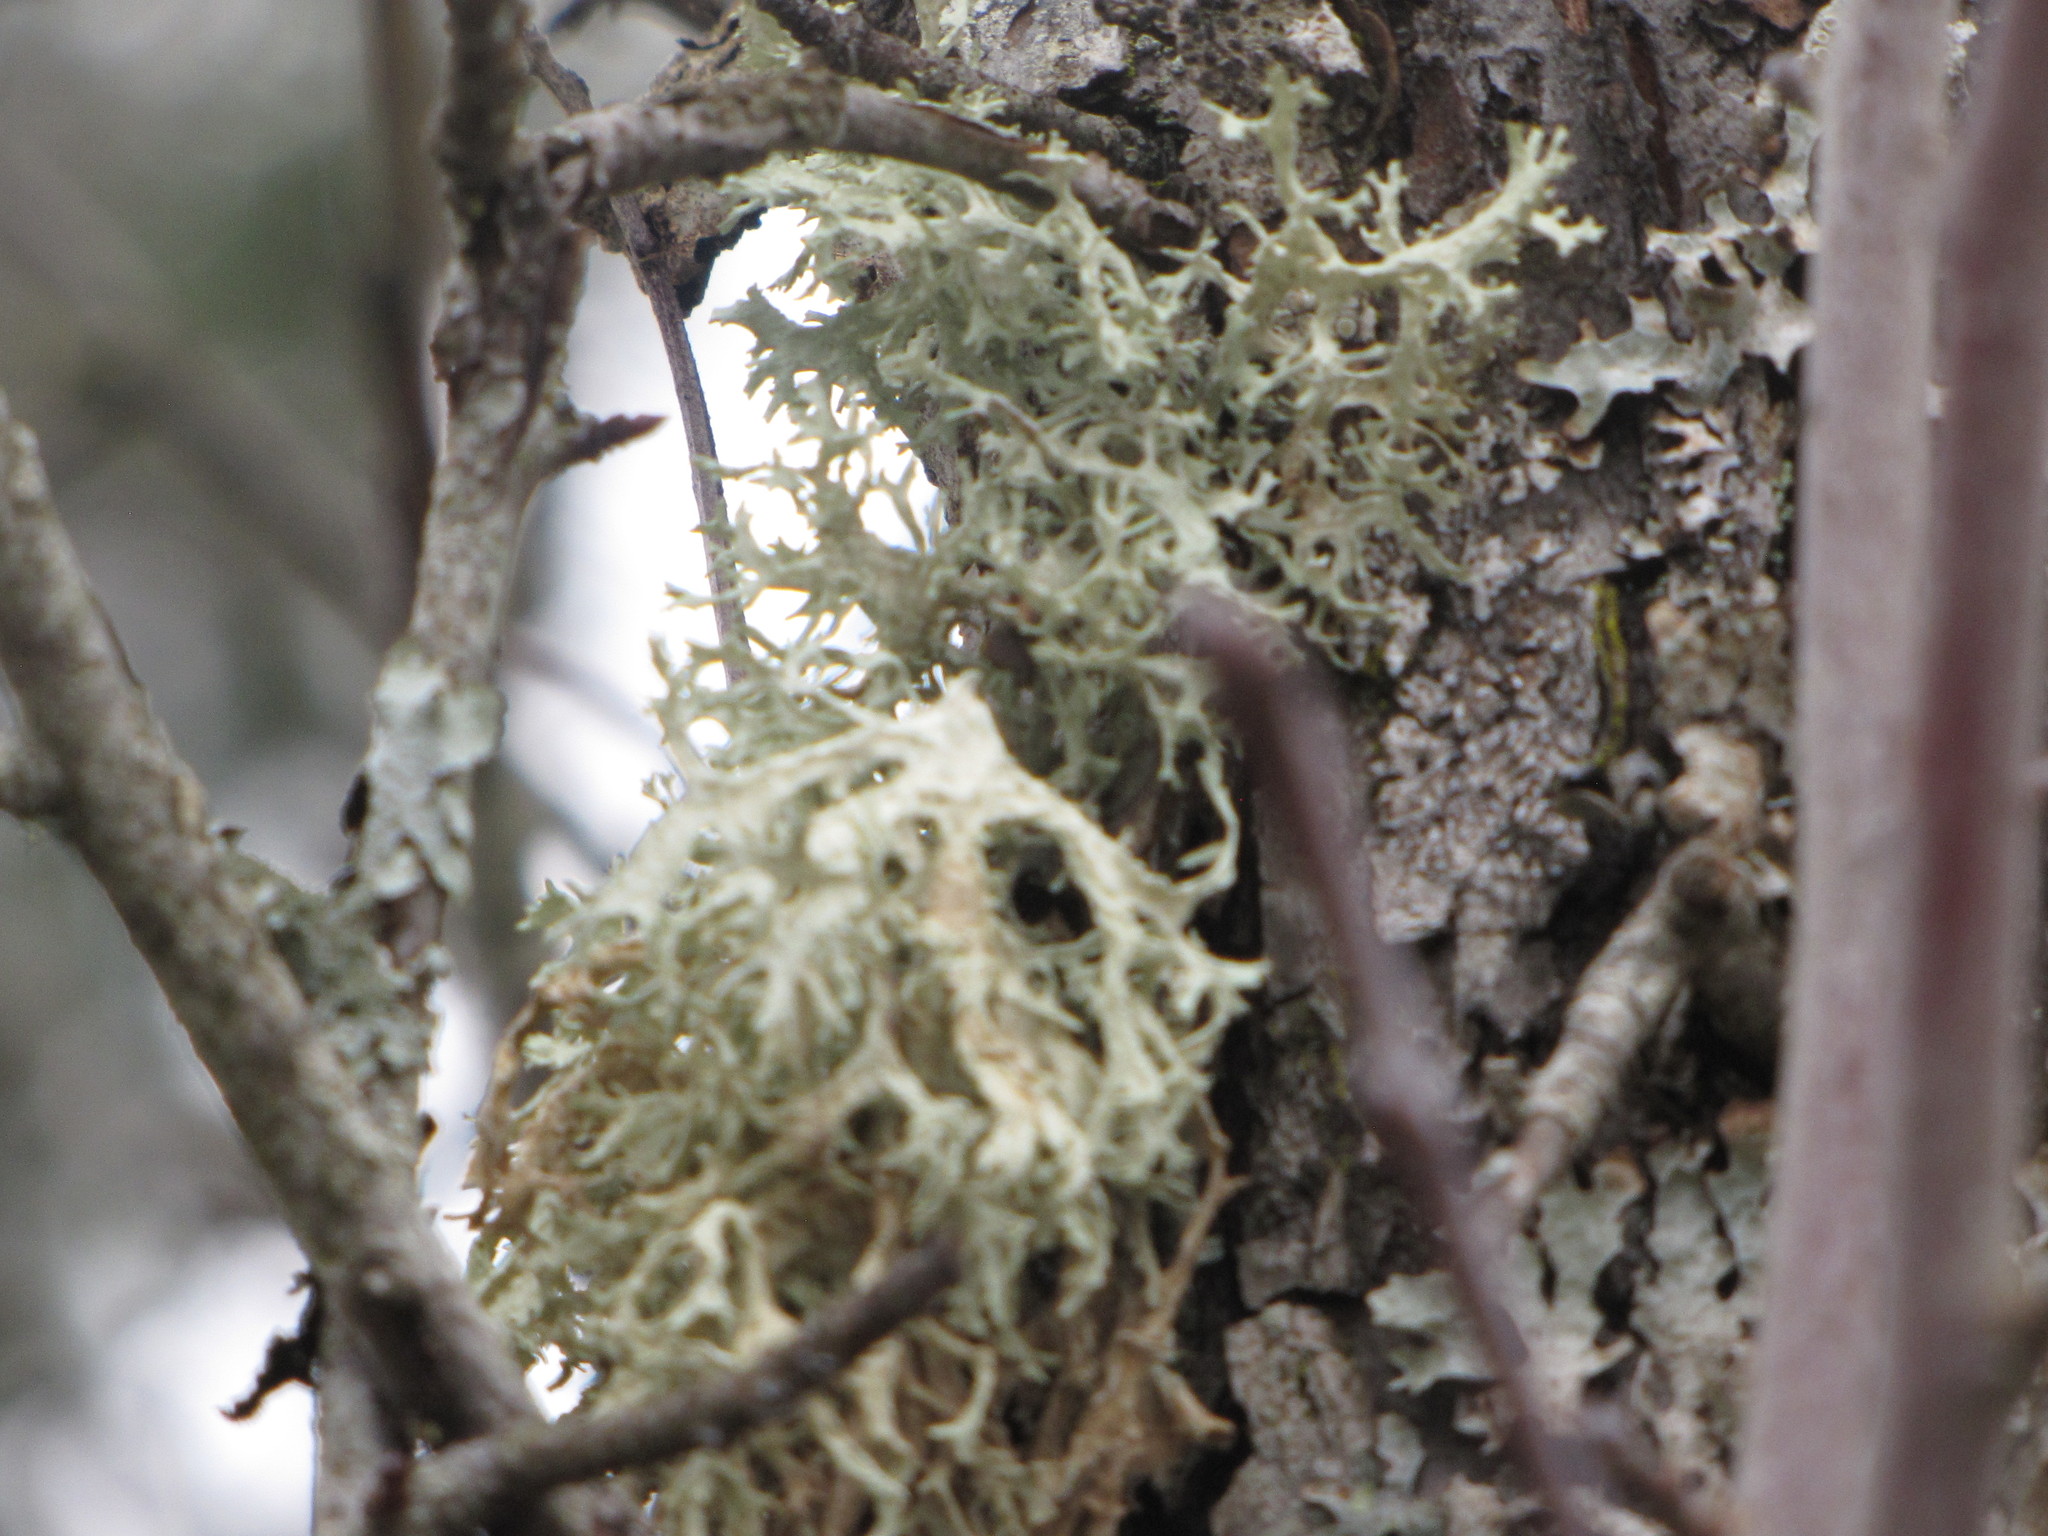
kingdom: Fungi
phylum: Ascomycota
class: Lecanoromycetes
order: Lecanorales
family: Parmeliaceae
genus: Evernia
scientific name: Evernia prunastri
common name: Oak moss
